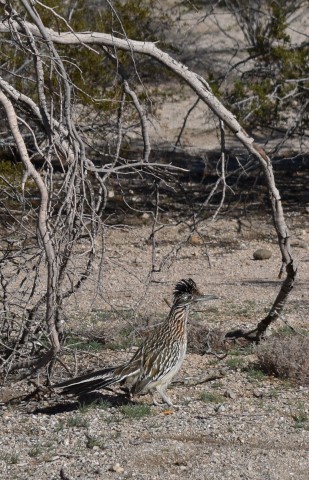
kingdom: Animalia
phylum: Chordata
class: Aves
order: Cuculiformes
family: Cuculidae
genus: Geococcyx
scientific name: Geococcyx californianus
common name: Greater roadrunner
